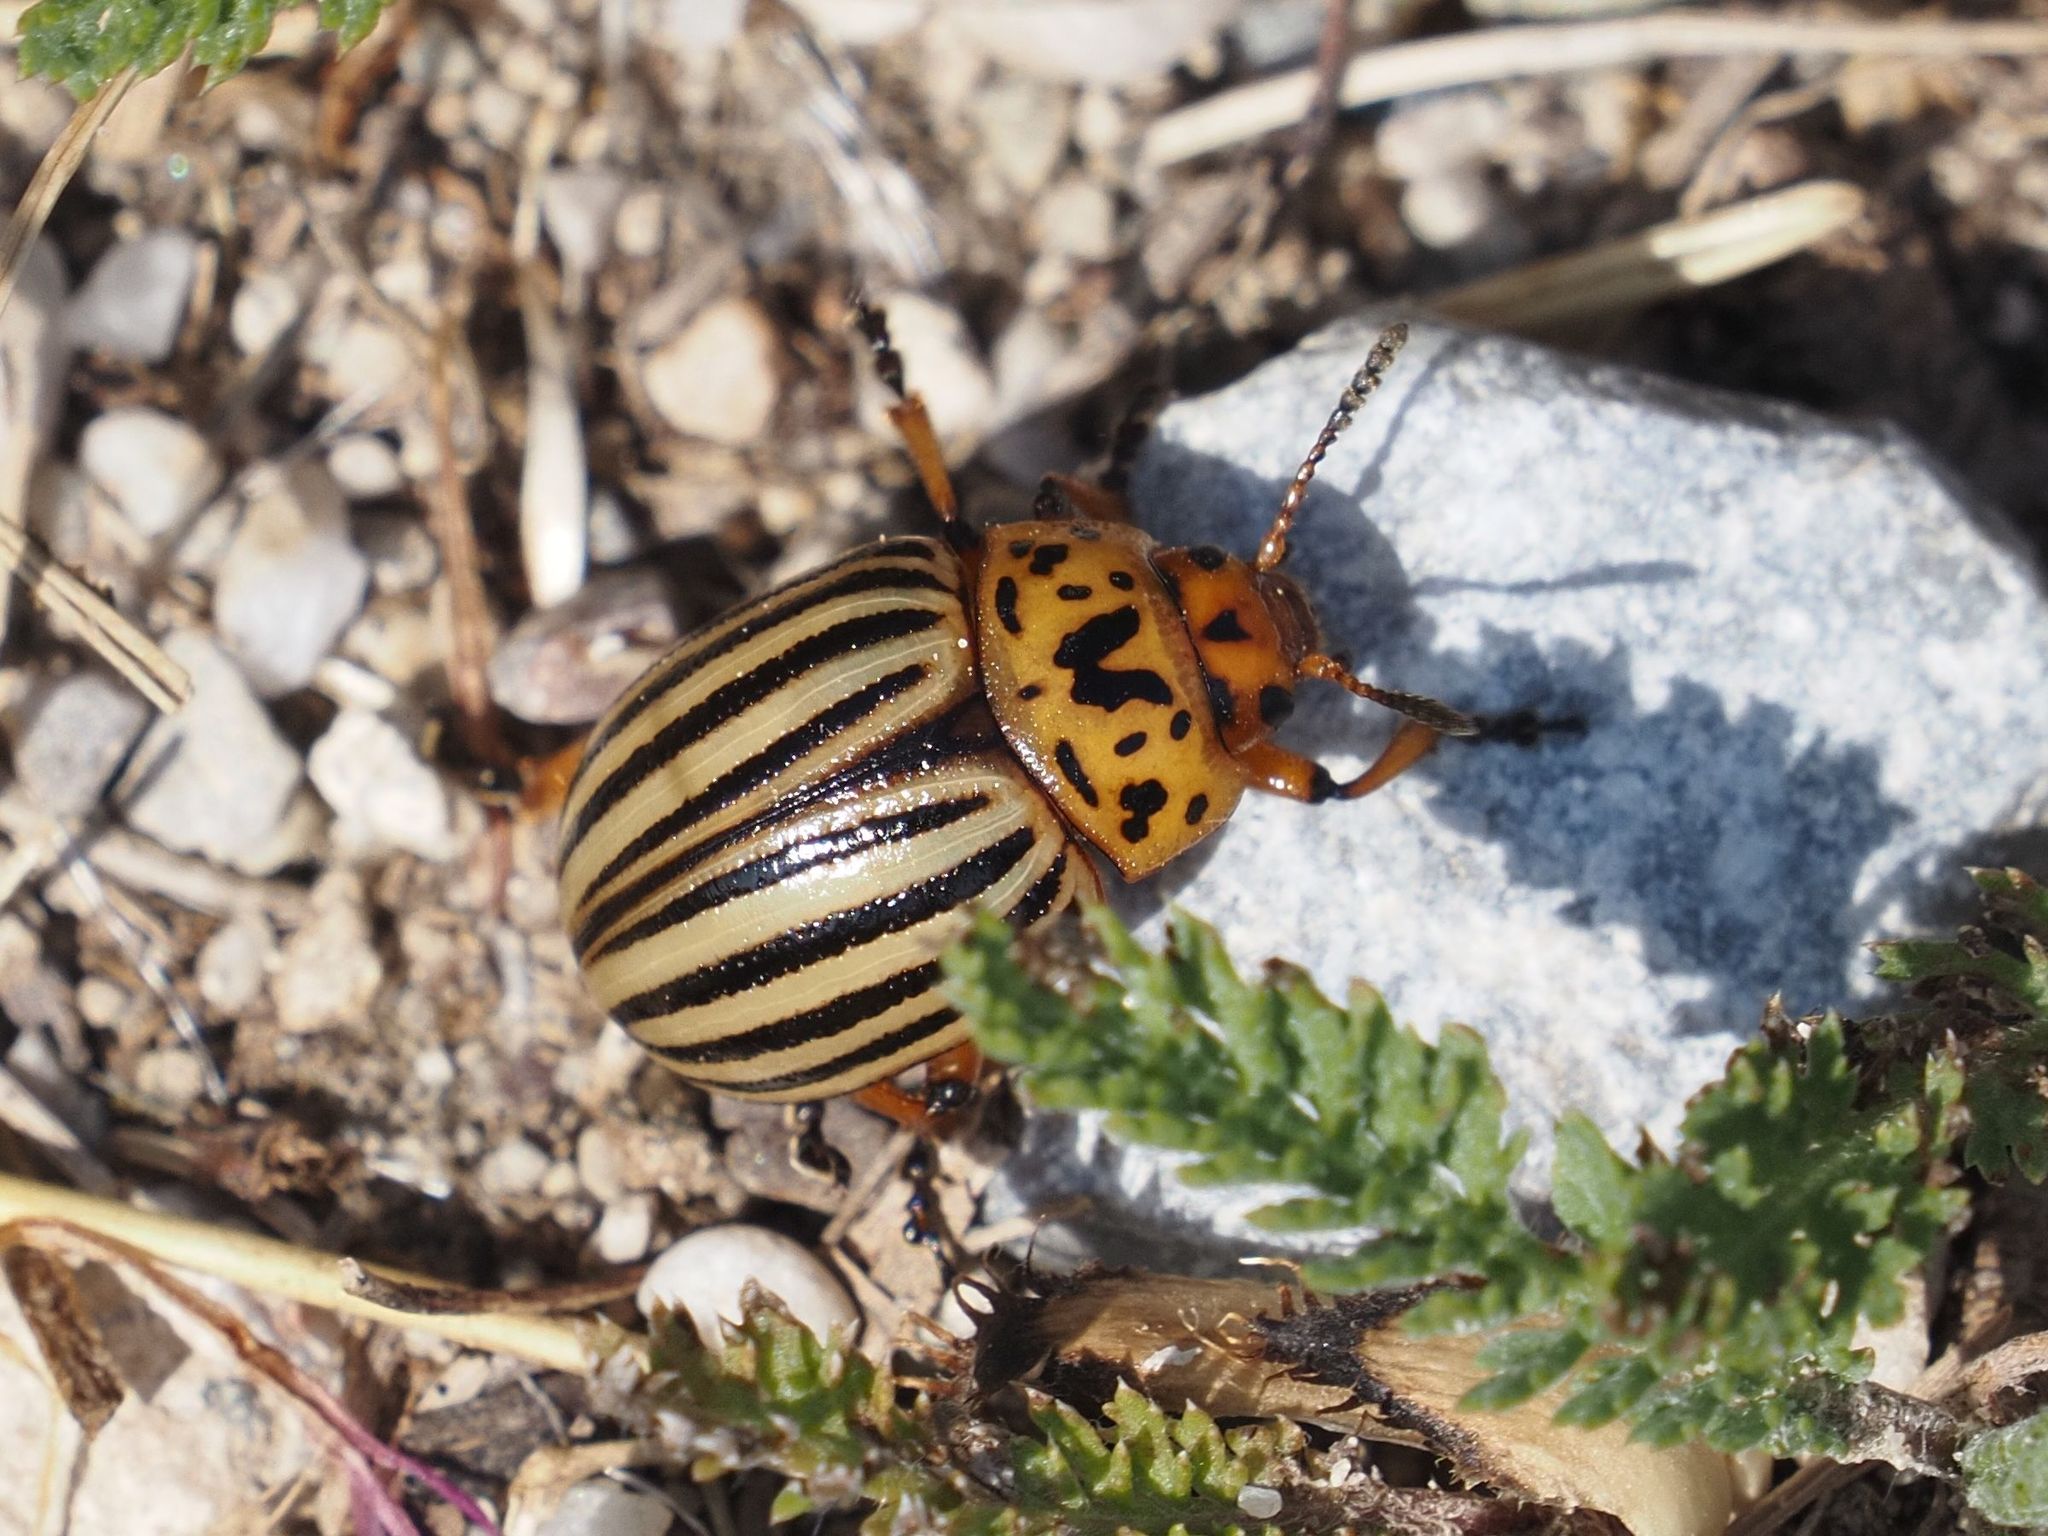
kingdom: Animalia
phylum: Arthropoda
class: Insecta
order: Coleoptera
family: Chrysomelidae
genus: Leptinotarsa
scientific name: Leptinotarsa decemlineata
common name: Colorado potato beetle
